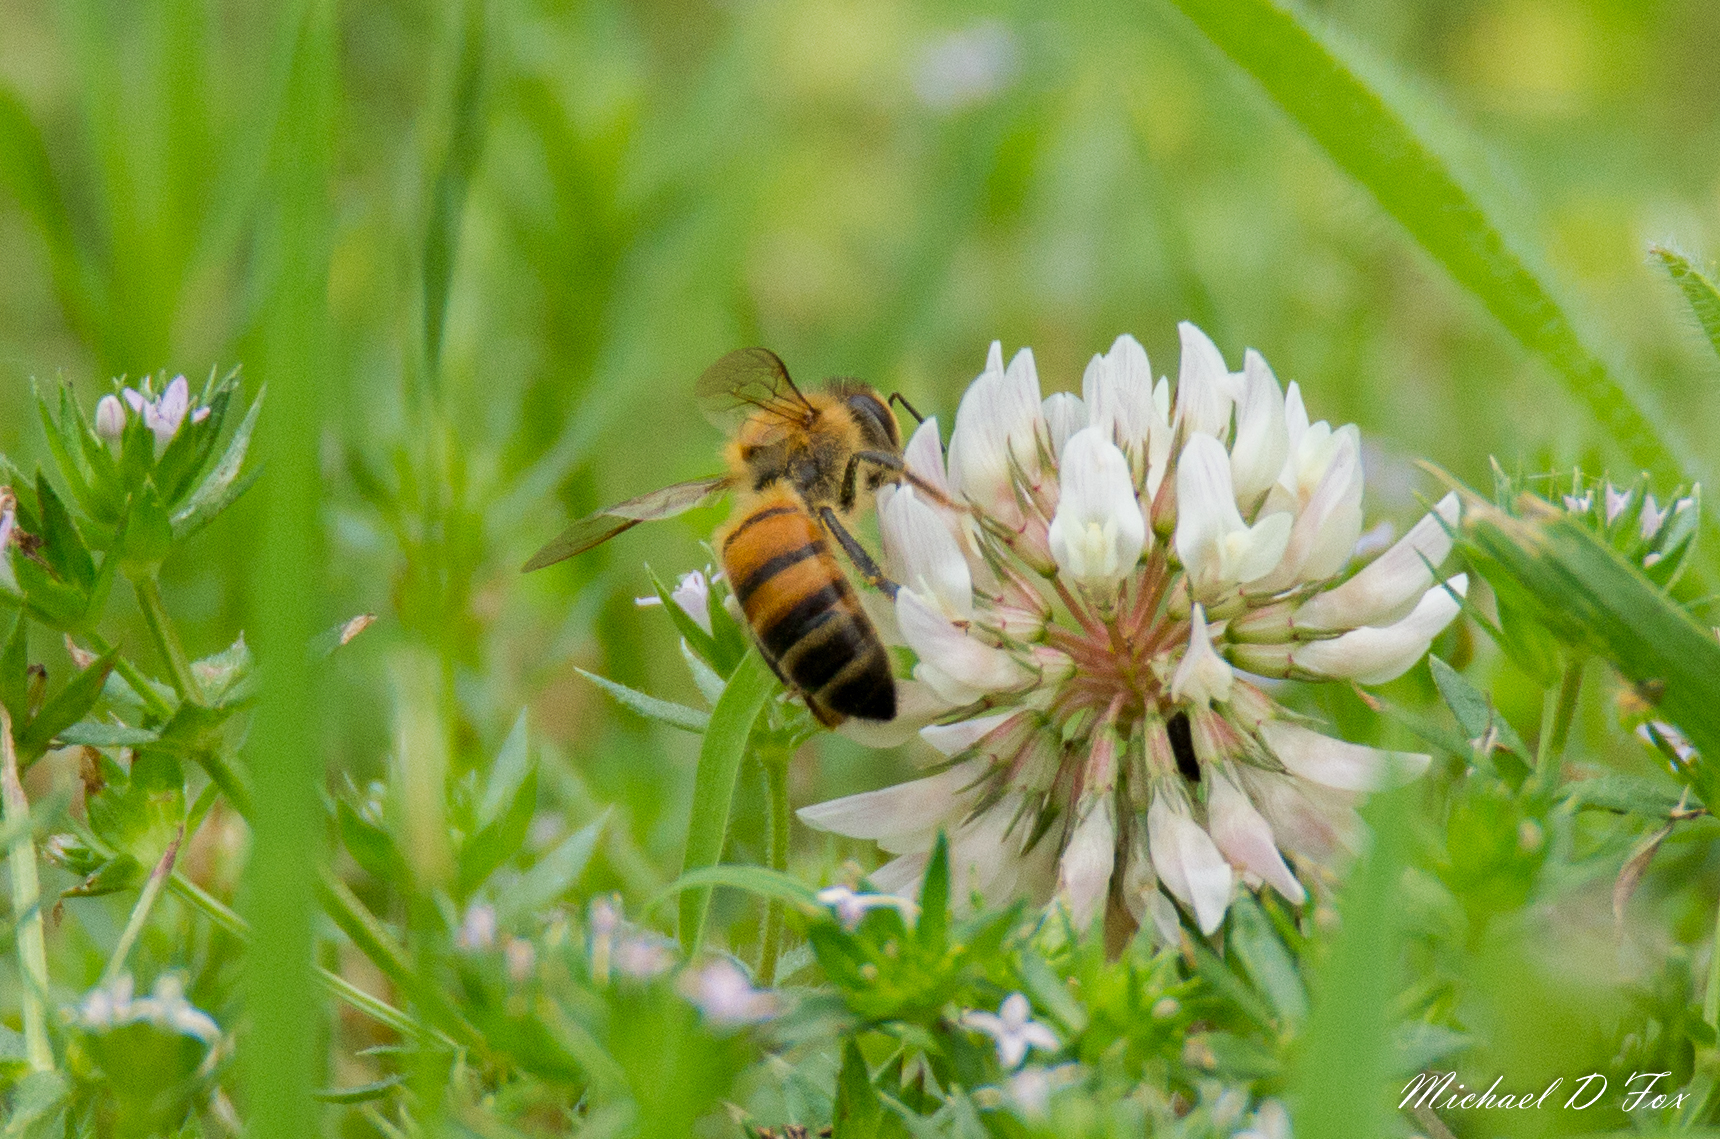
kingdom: Animalia
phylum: Arthropoda
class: Insecta
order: Hymenoptera
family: Apidae
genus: Apis
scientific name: Apis mellifera
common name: Honey bee
